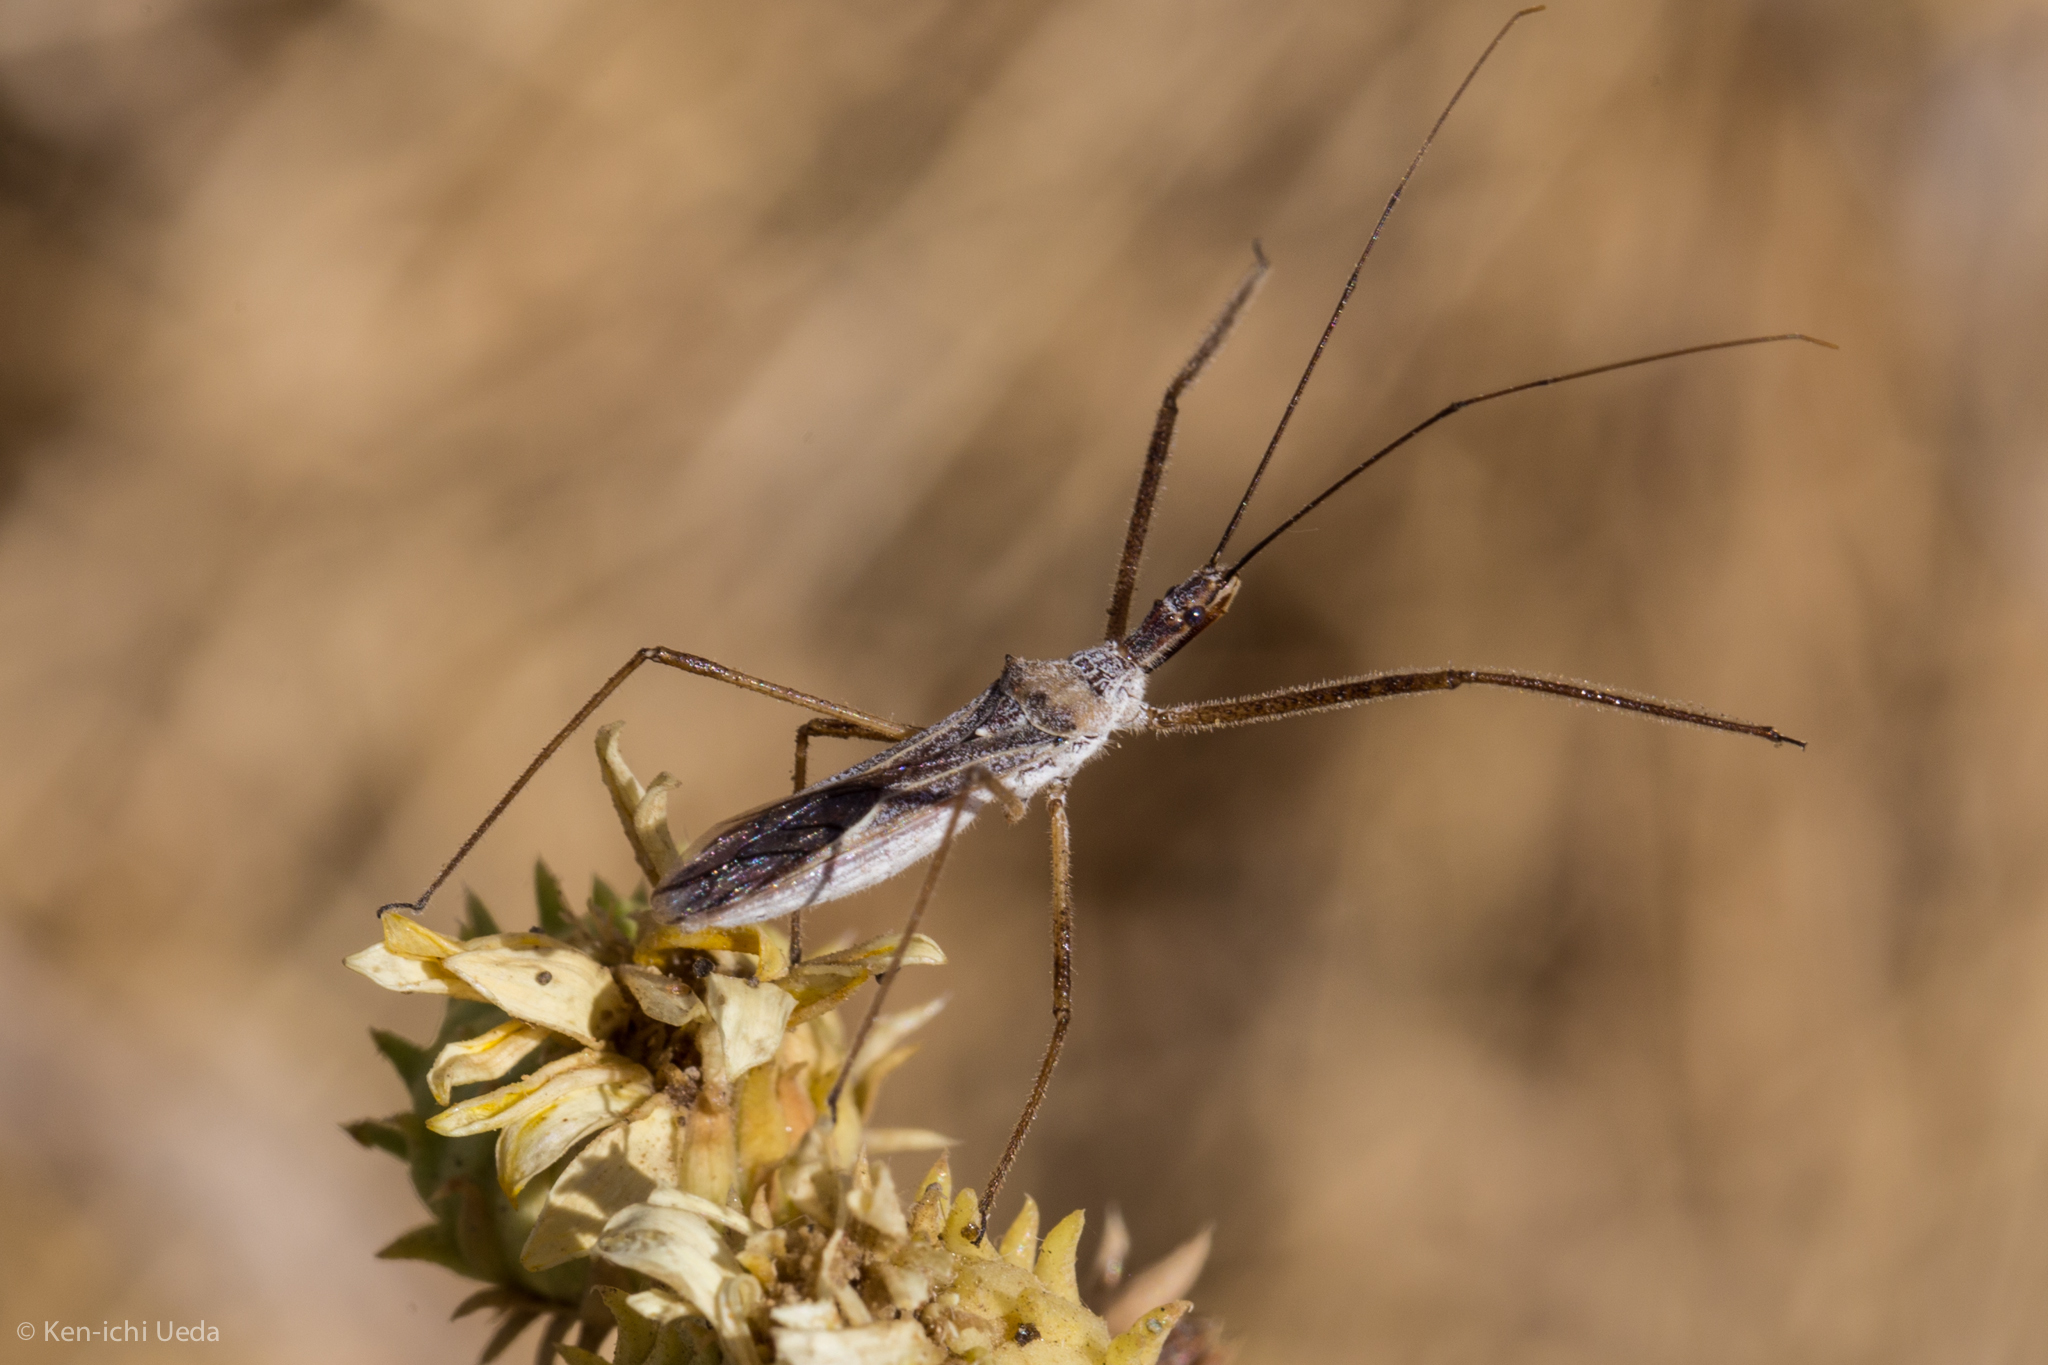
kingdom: Animalia
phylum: Arthropoda
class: Insecta
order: Hemiptera
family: Reduviidae
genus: Zelus
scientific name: Zelus tetracanthus
